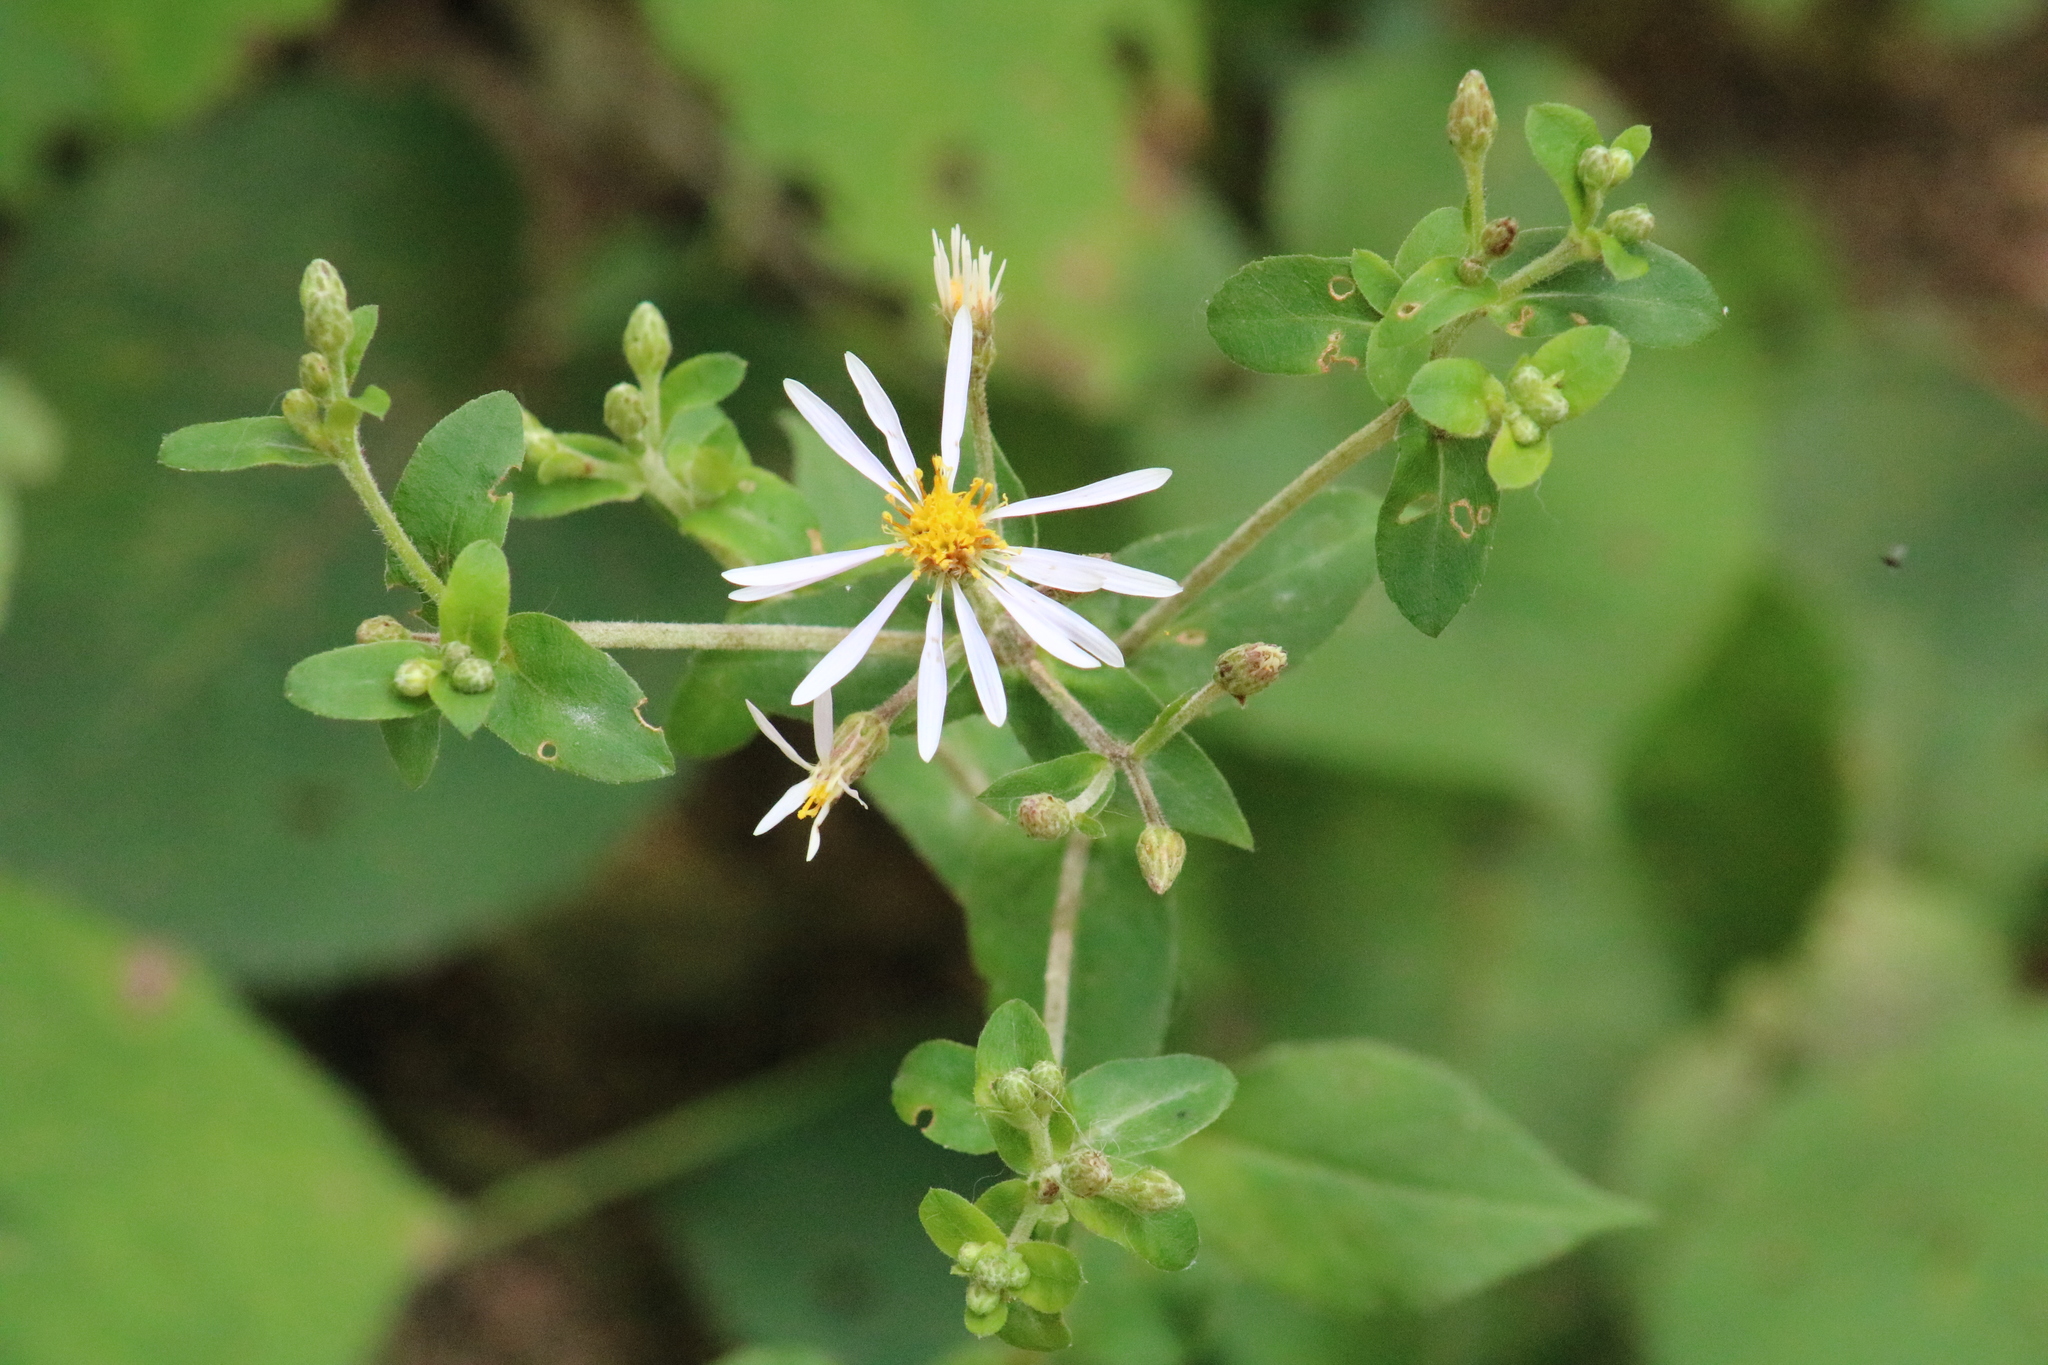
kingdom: Plantae
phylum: Tracheophyta
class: Magnoliopsida
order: Asterales
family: Asteraceae
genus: Eurybia
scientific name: Eurybia macrophylla
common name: Big-leaved aster
